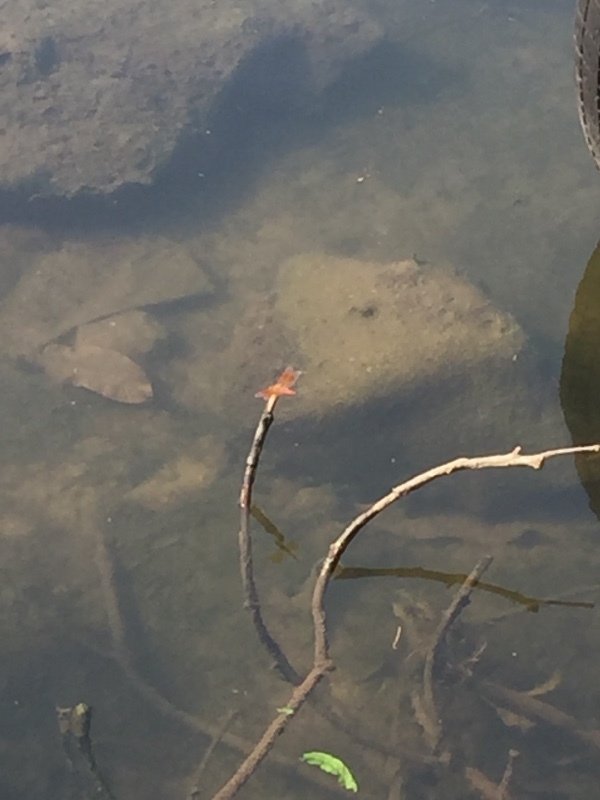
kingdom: Animalia
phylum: Arthropoda
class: Insecta
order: Odonata
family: Libellulidae
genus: Brachythemis
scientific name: Brachythemis contaminata
